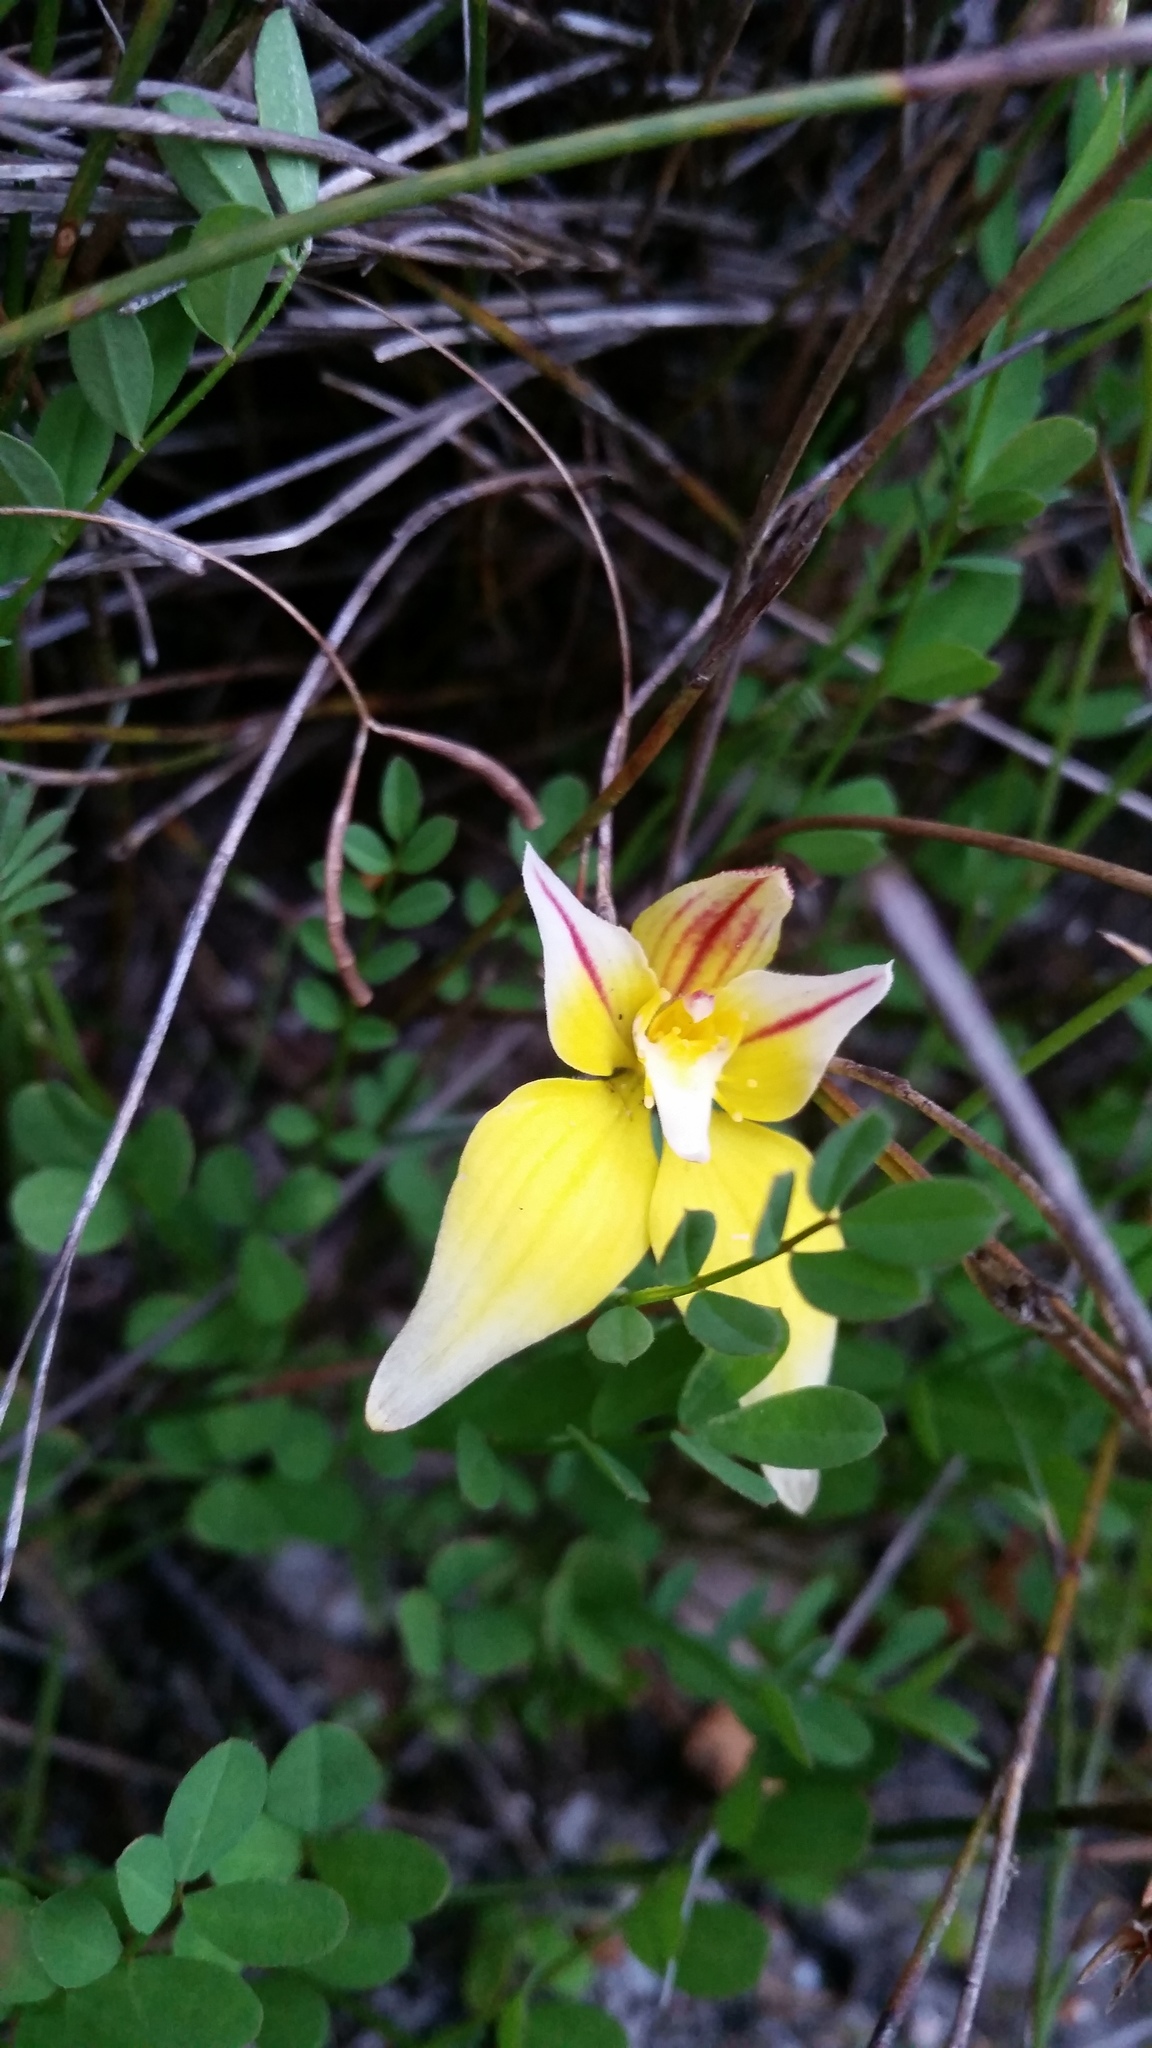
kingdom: Plantae
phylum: Tracheophyta
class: Liliopsida
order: Asparagales
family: Orchidaceae
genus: Caladenia
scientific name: Caladenia flava
